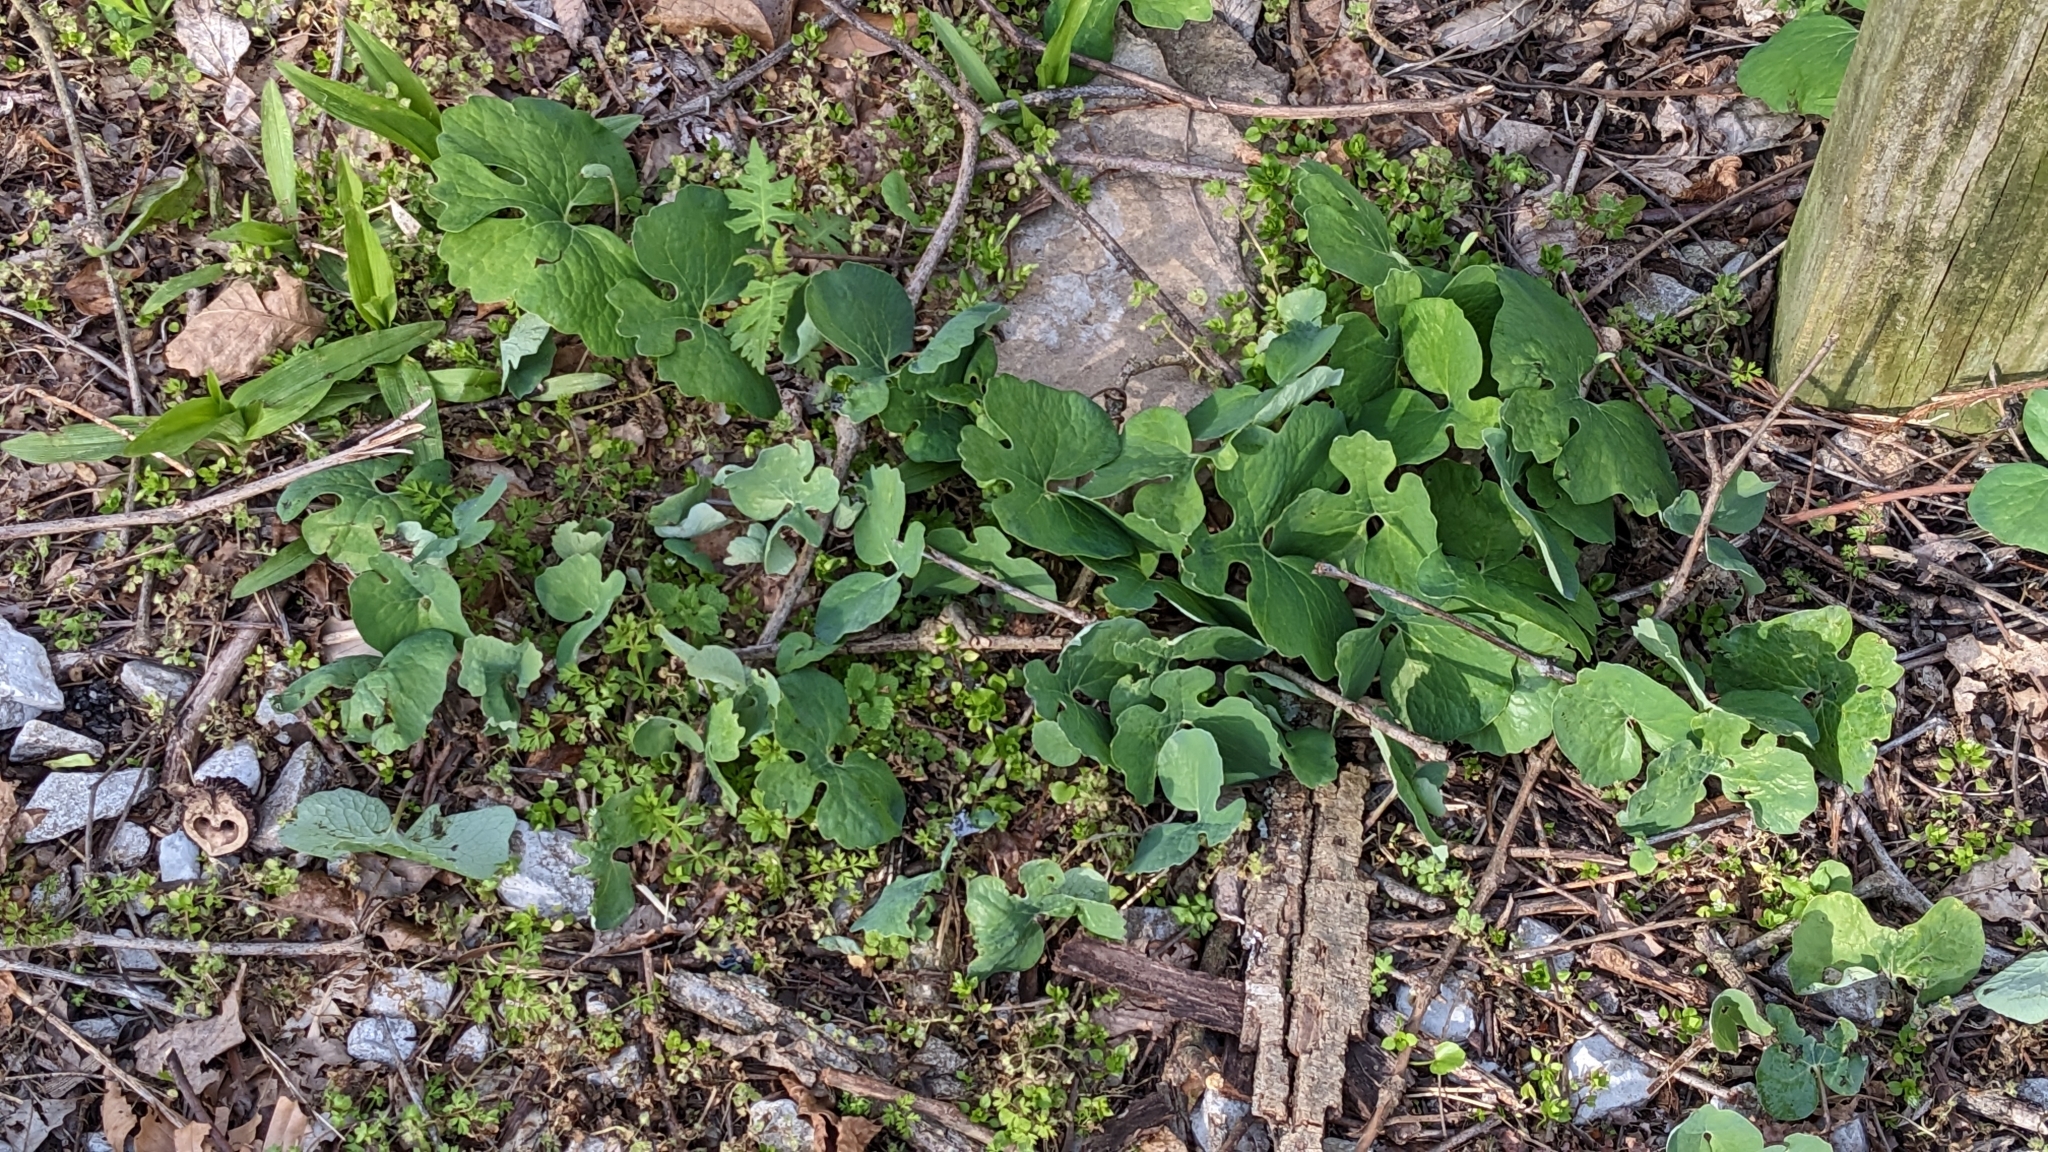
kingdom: Plantae
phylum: Tracheophyta
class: Magnoliopsida
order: Ranunculales
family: Papaveraceae
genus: Sanguinaria
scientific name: Sanguinaria canadensis
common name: Bloodroot
